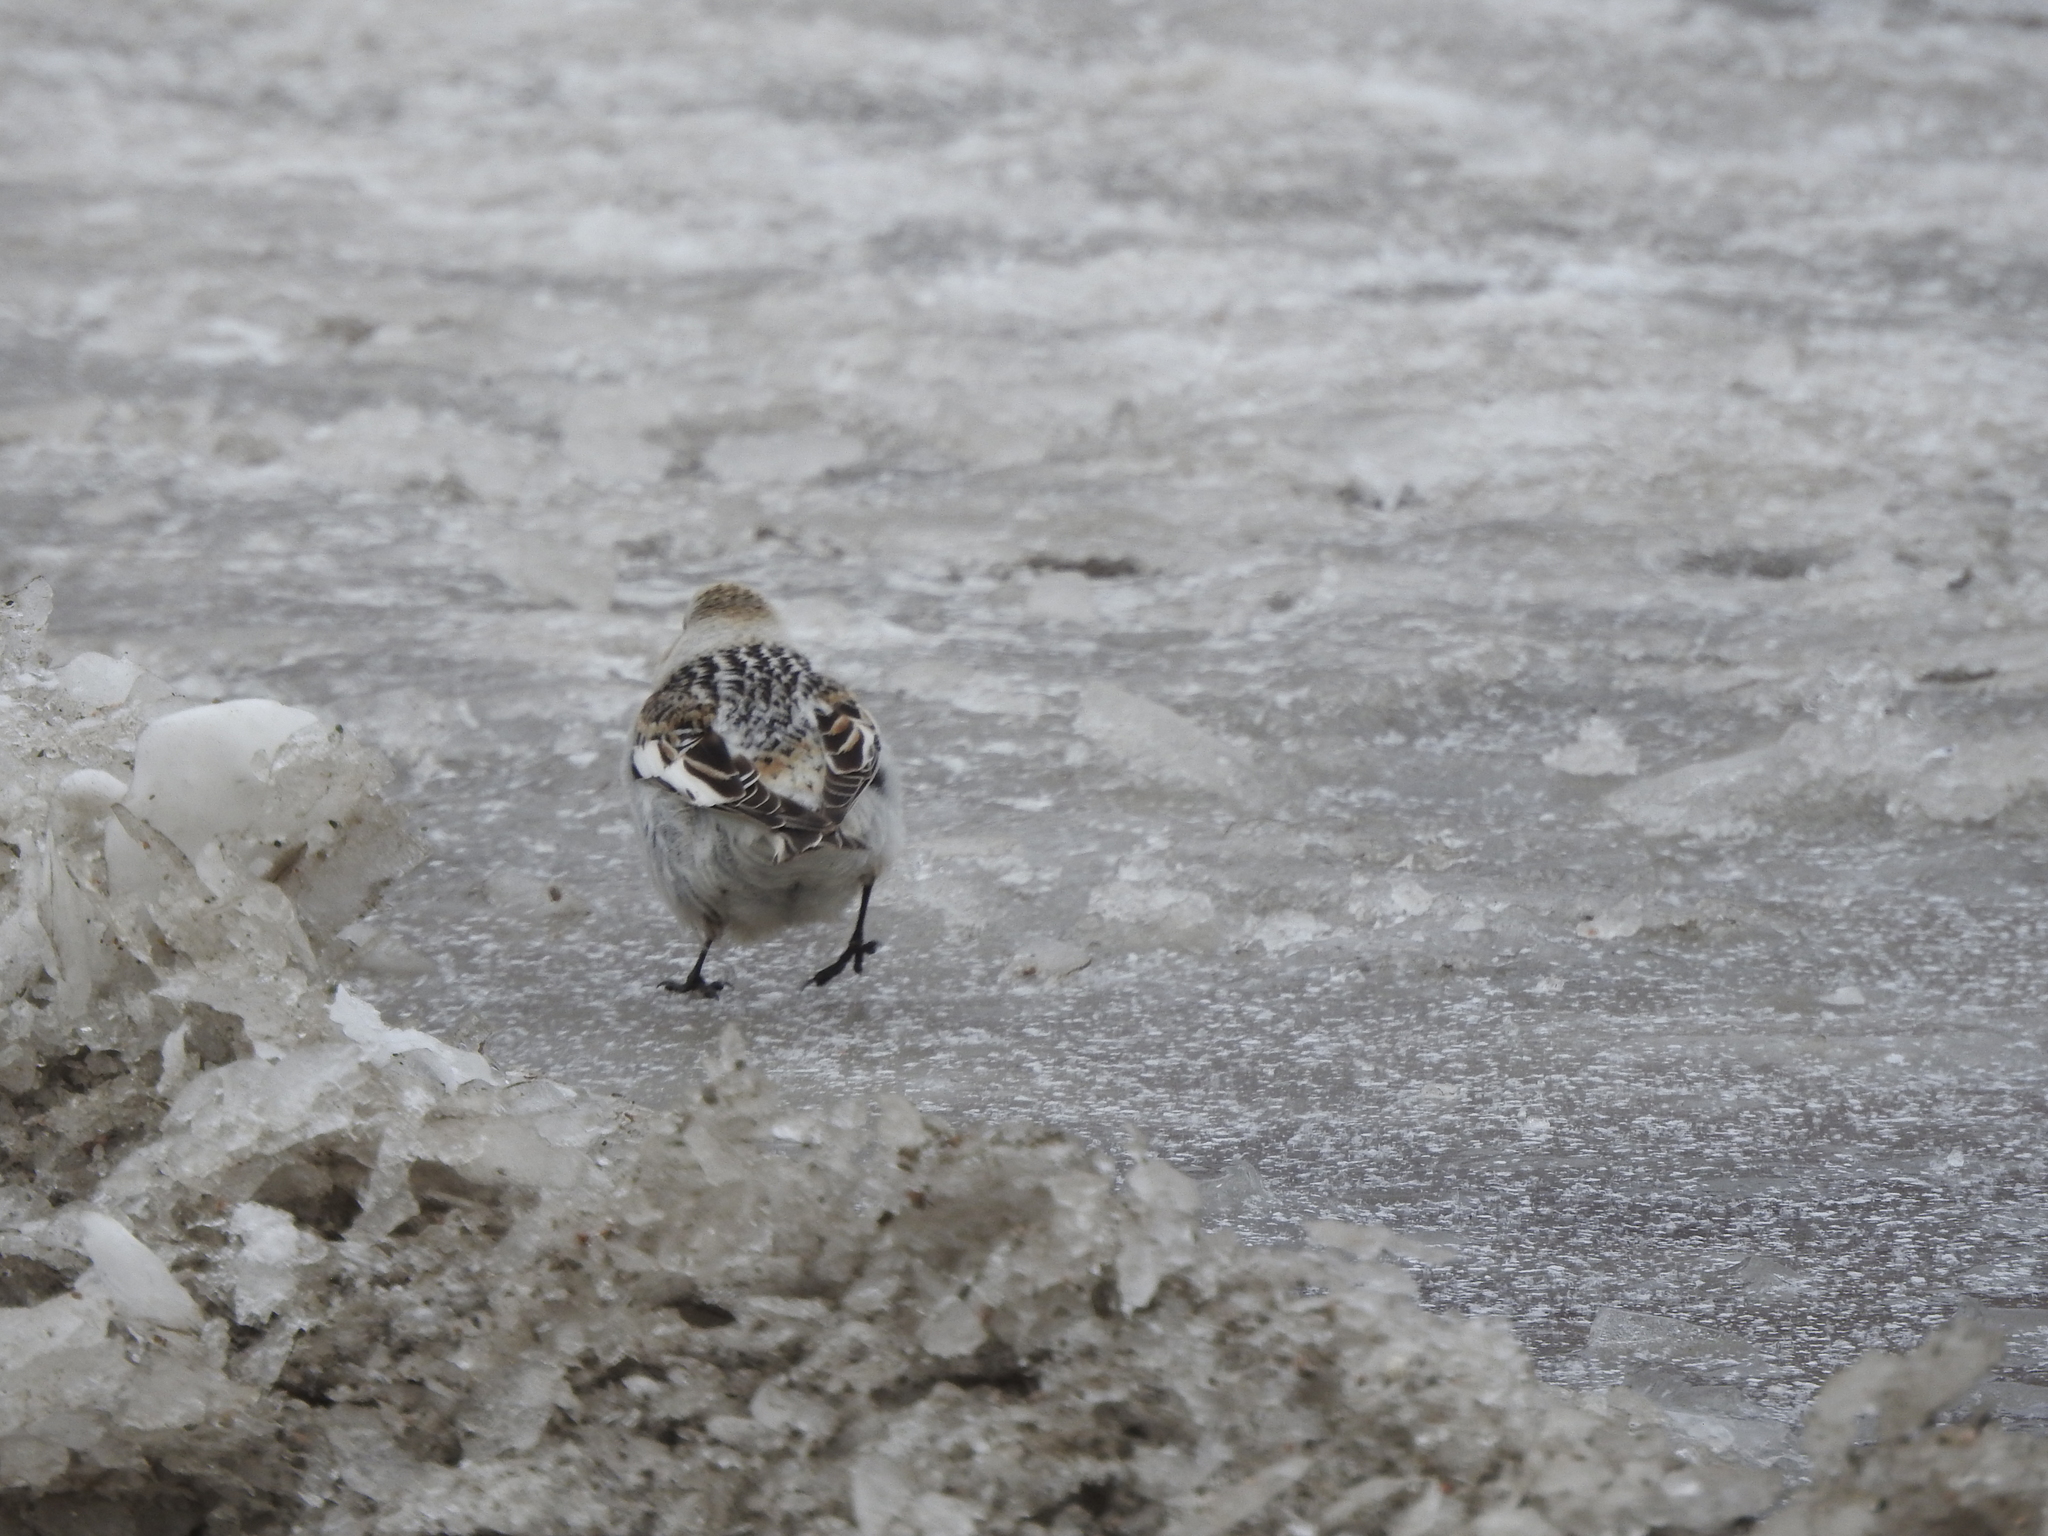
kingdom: Animalia
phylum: Chordata
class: Aves
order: Passeriformes
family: Calcariidae
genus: Plectrophenax
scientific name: Plectrophenax nivalis
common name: Snow bunting
